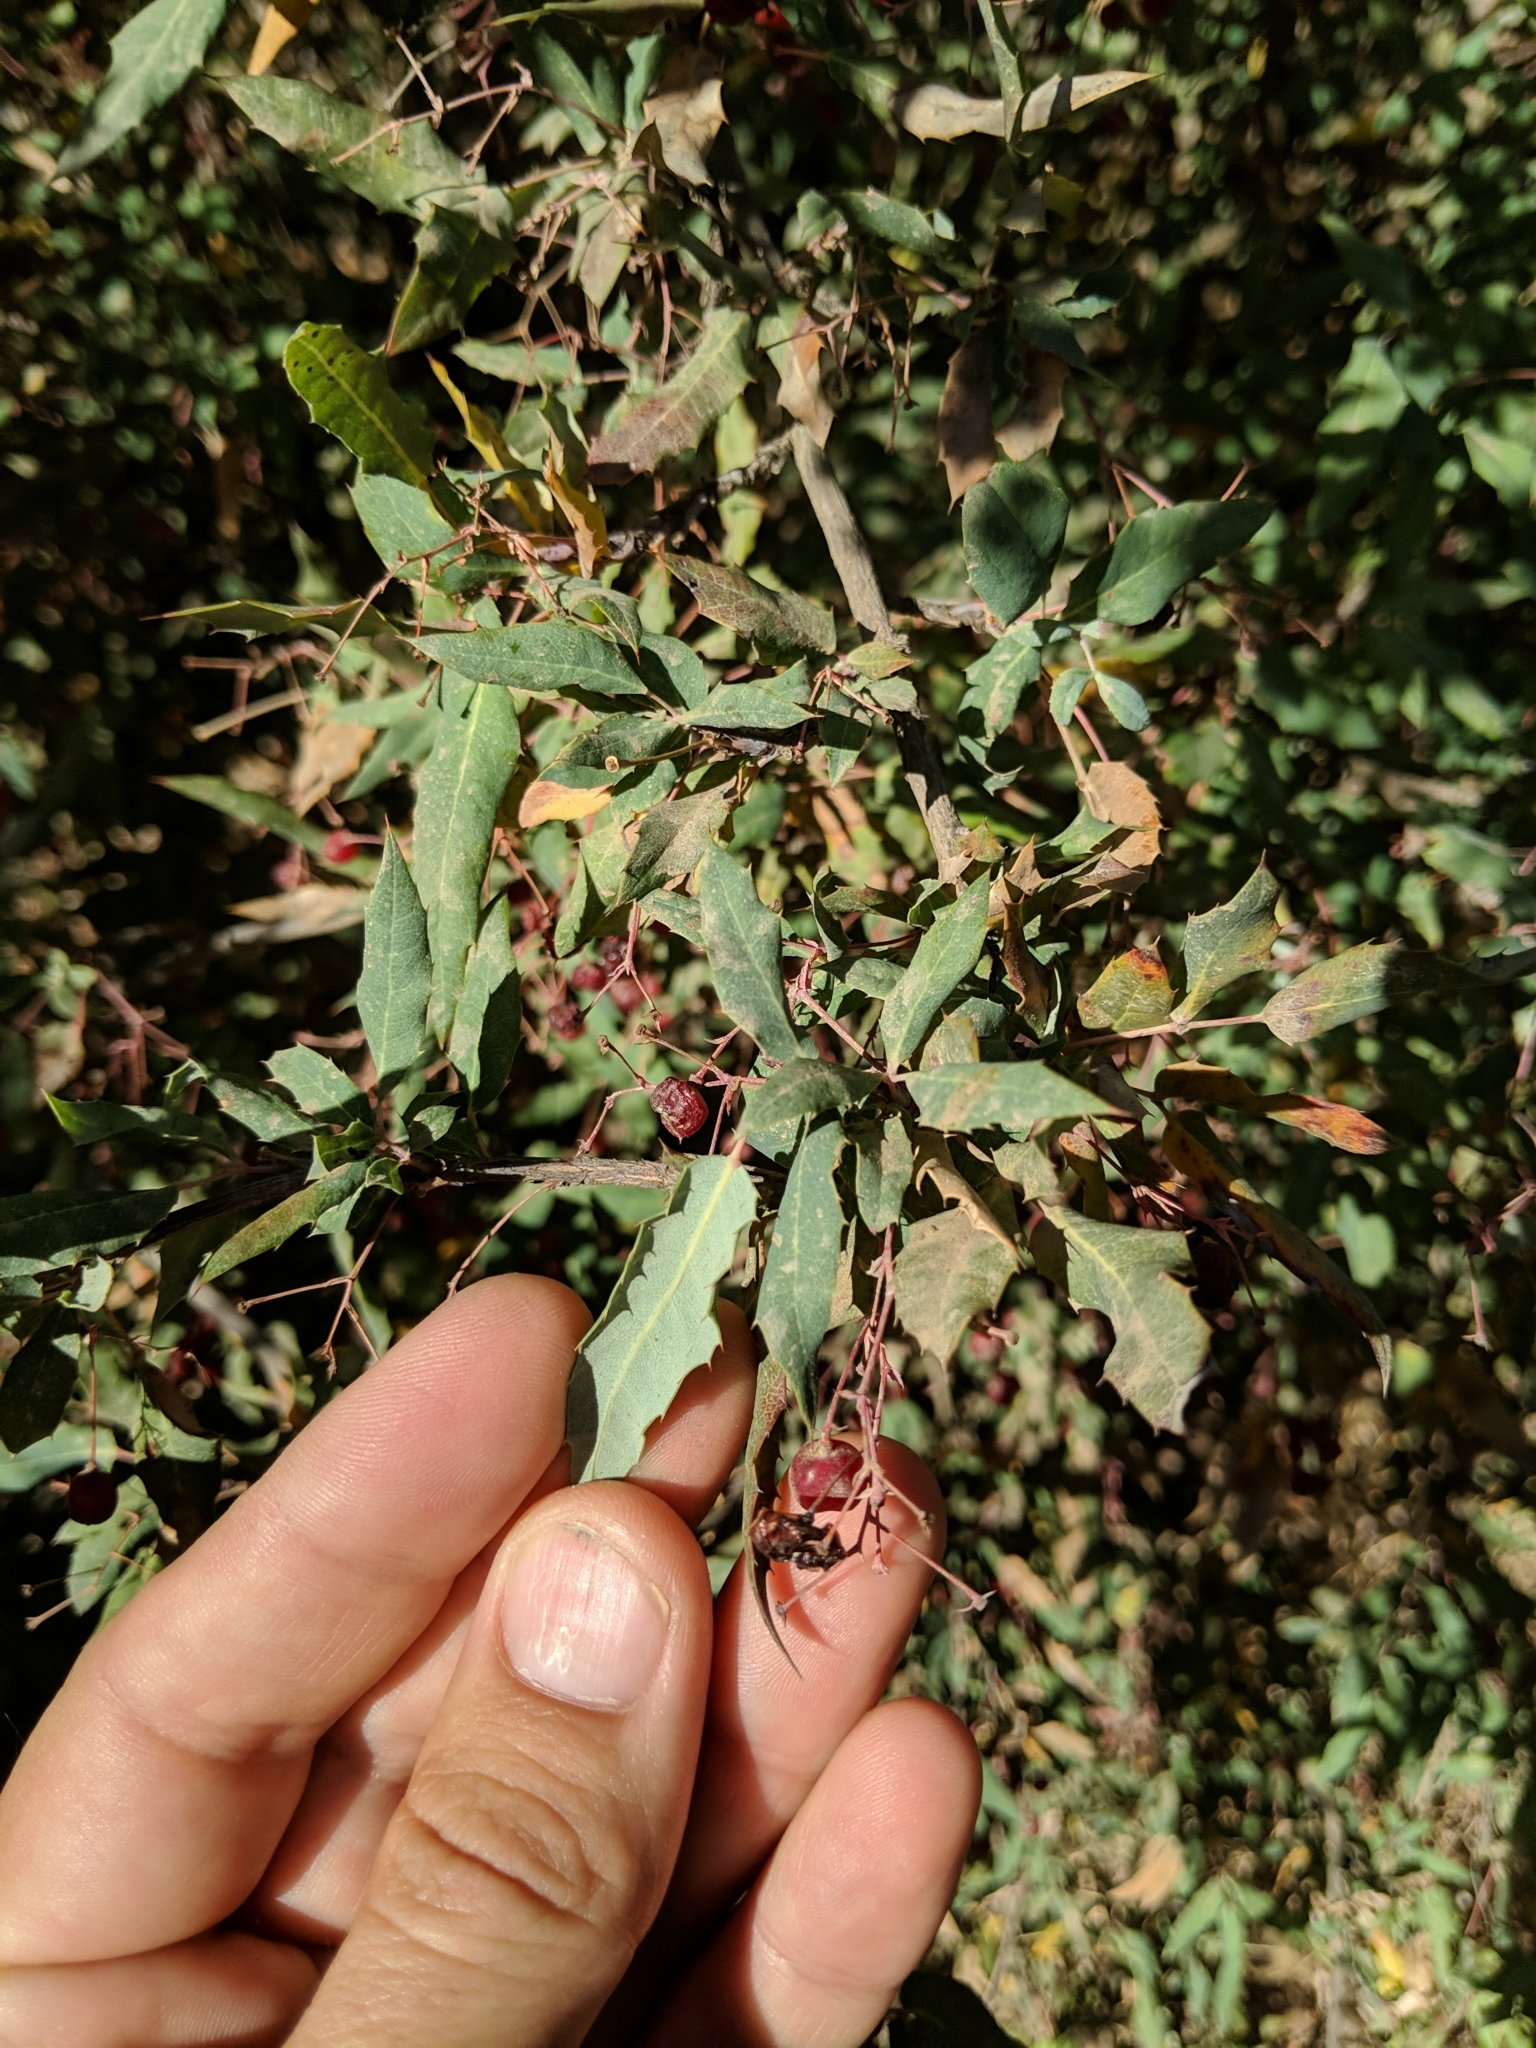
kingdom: Plantae
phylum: Tracheophyta
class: Magnoliopsida
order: Ranunculales
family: Berberidaceae
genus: Alloberberis
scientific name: Alloberberis nevinii
